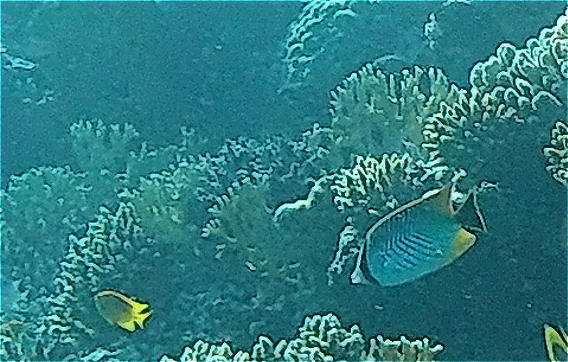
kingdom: Animalia
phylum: Chordata
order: Perciformes
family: Chaetodontidae
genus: Chaetodon
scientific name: Chaetodon trifascialis
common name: Chevroned butterflyfish
